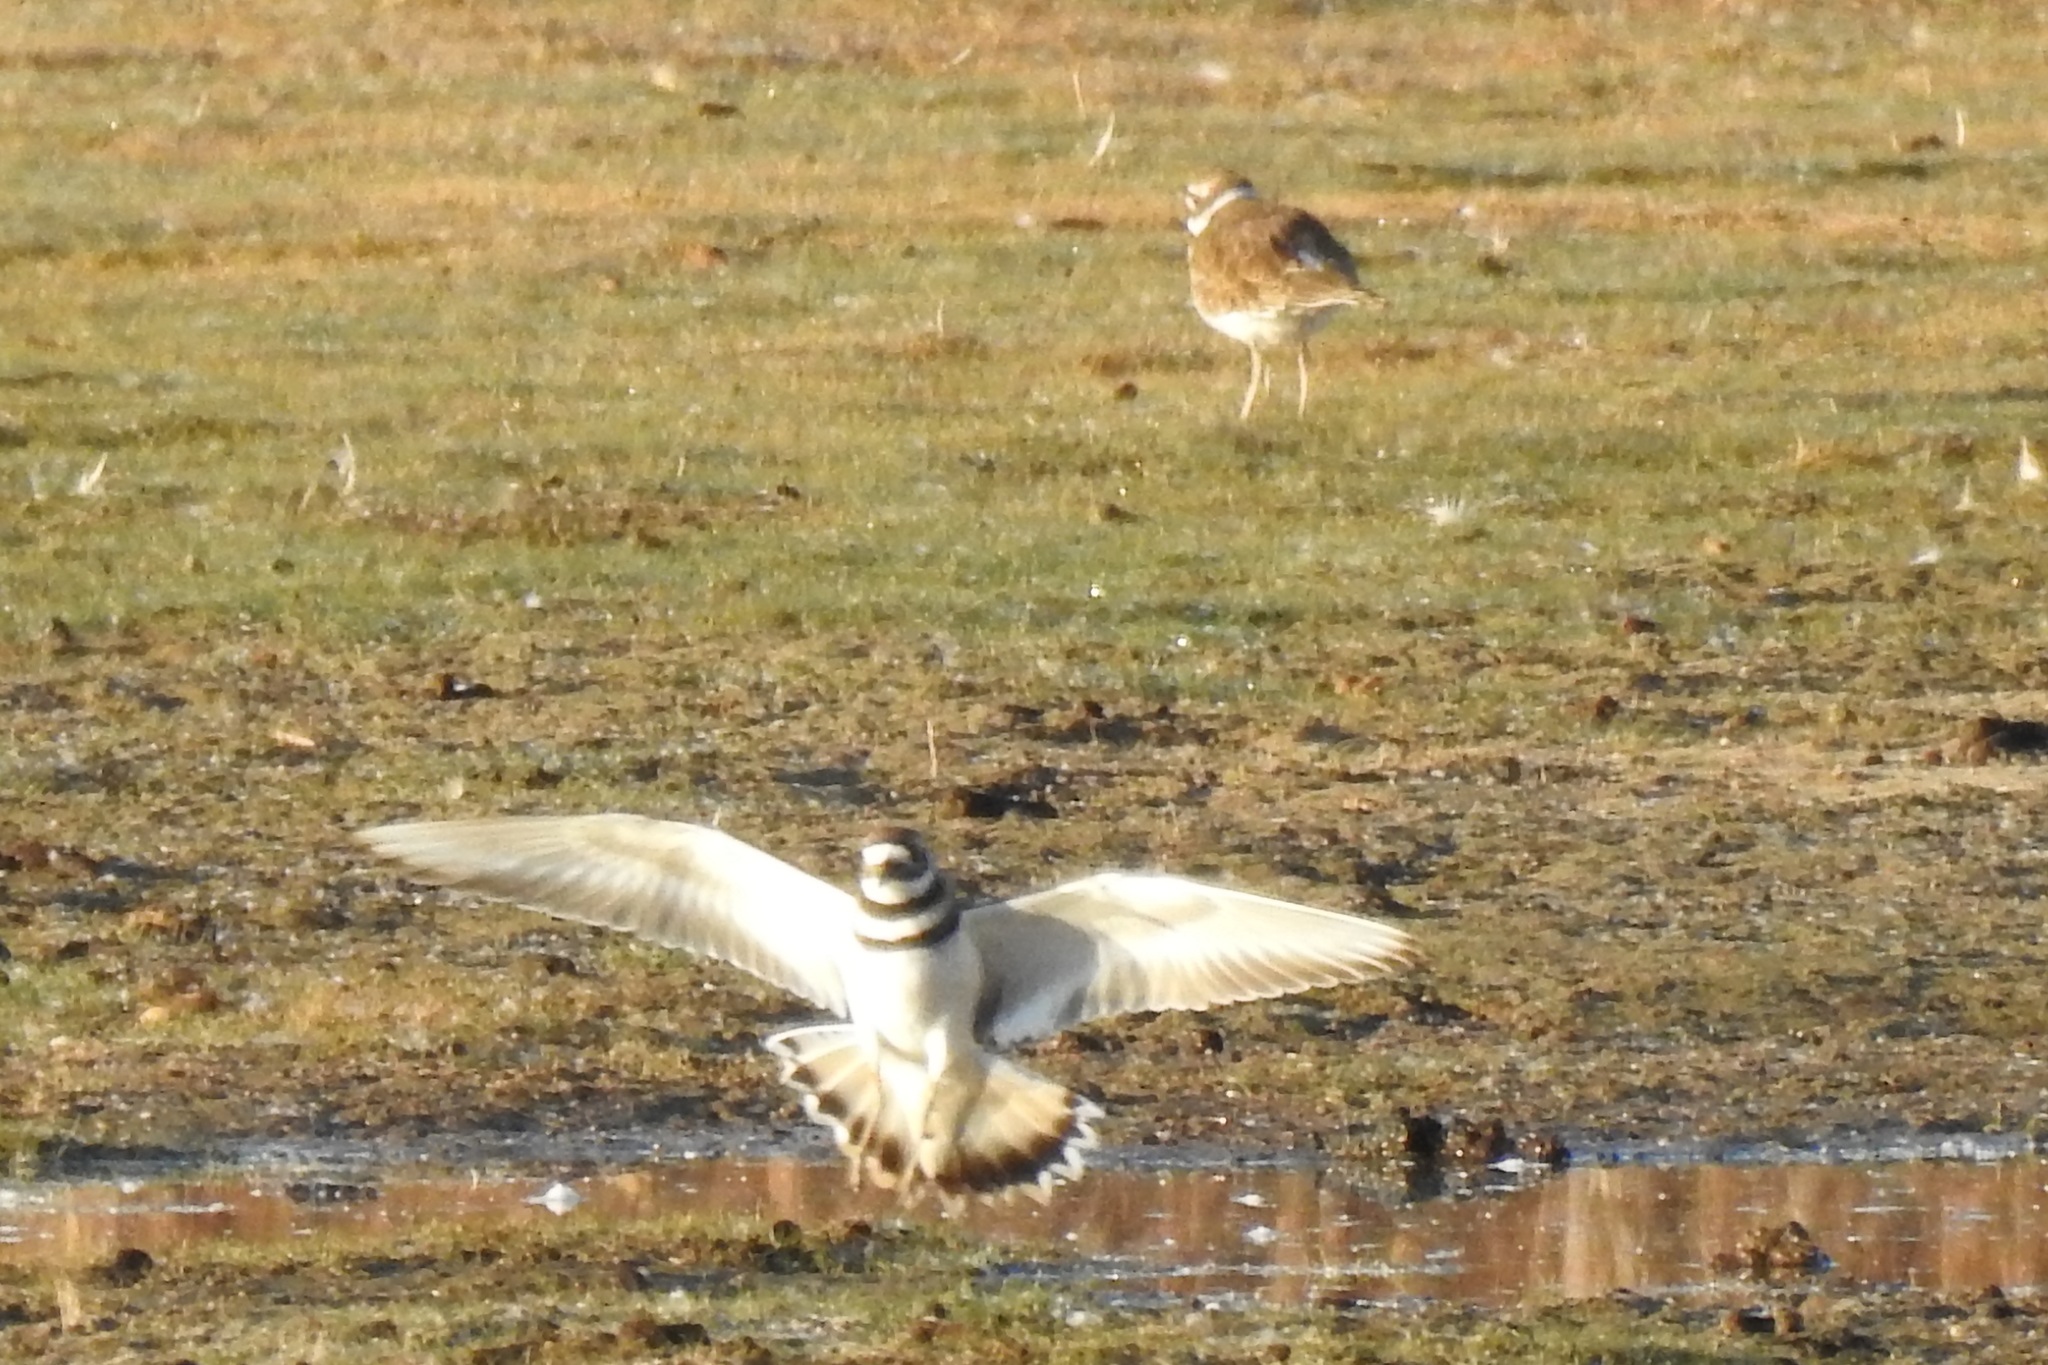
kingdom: Animalia
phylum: Chordata
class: Aves
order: Charadriiformes
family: Charadriidae
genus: Charadrius
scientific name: Charadrius vociferus
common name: Killdeer
